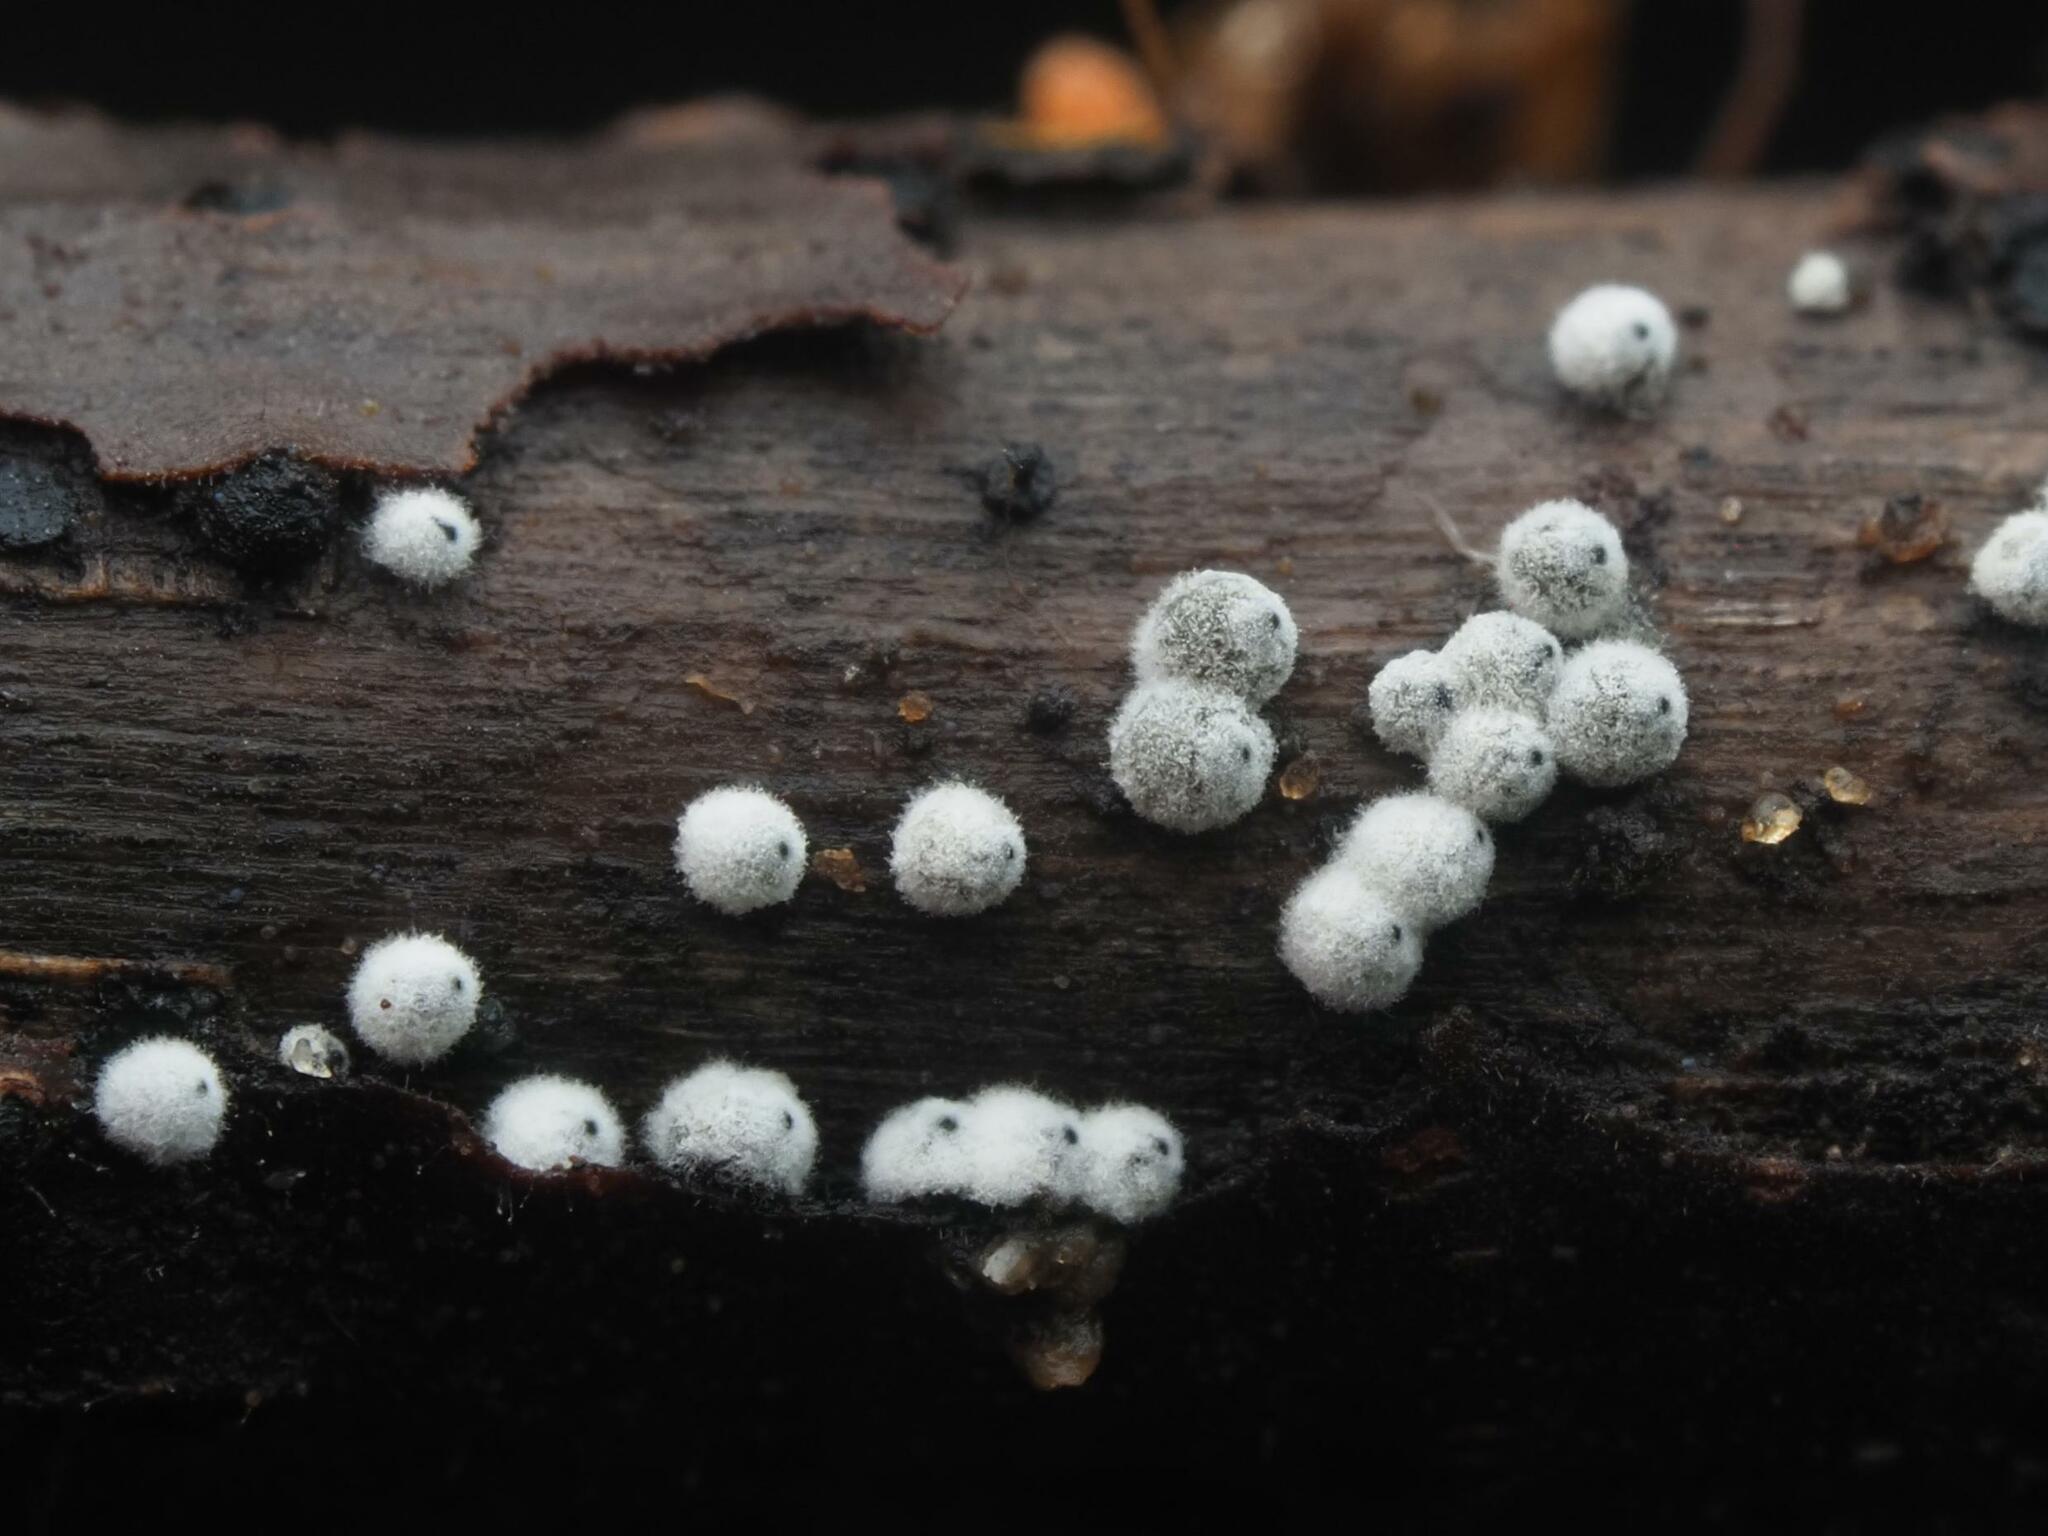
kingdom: Fungi
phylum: Ascomycota
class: Sordariomycetes
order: Sordariales
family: Lasiosphaeriaceae
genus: Lasiosphaeria
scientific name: Lasiosphaeria ovina
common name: Woolly woodwart
